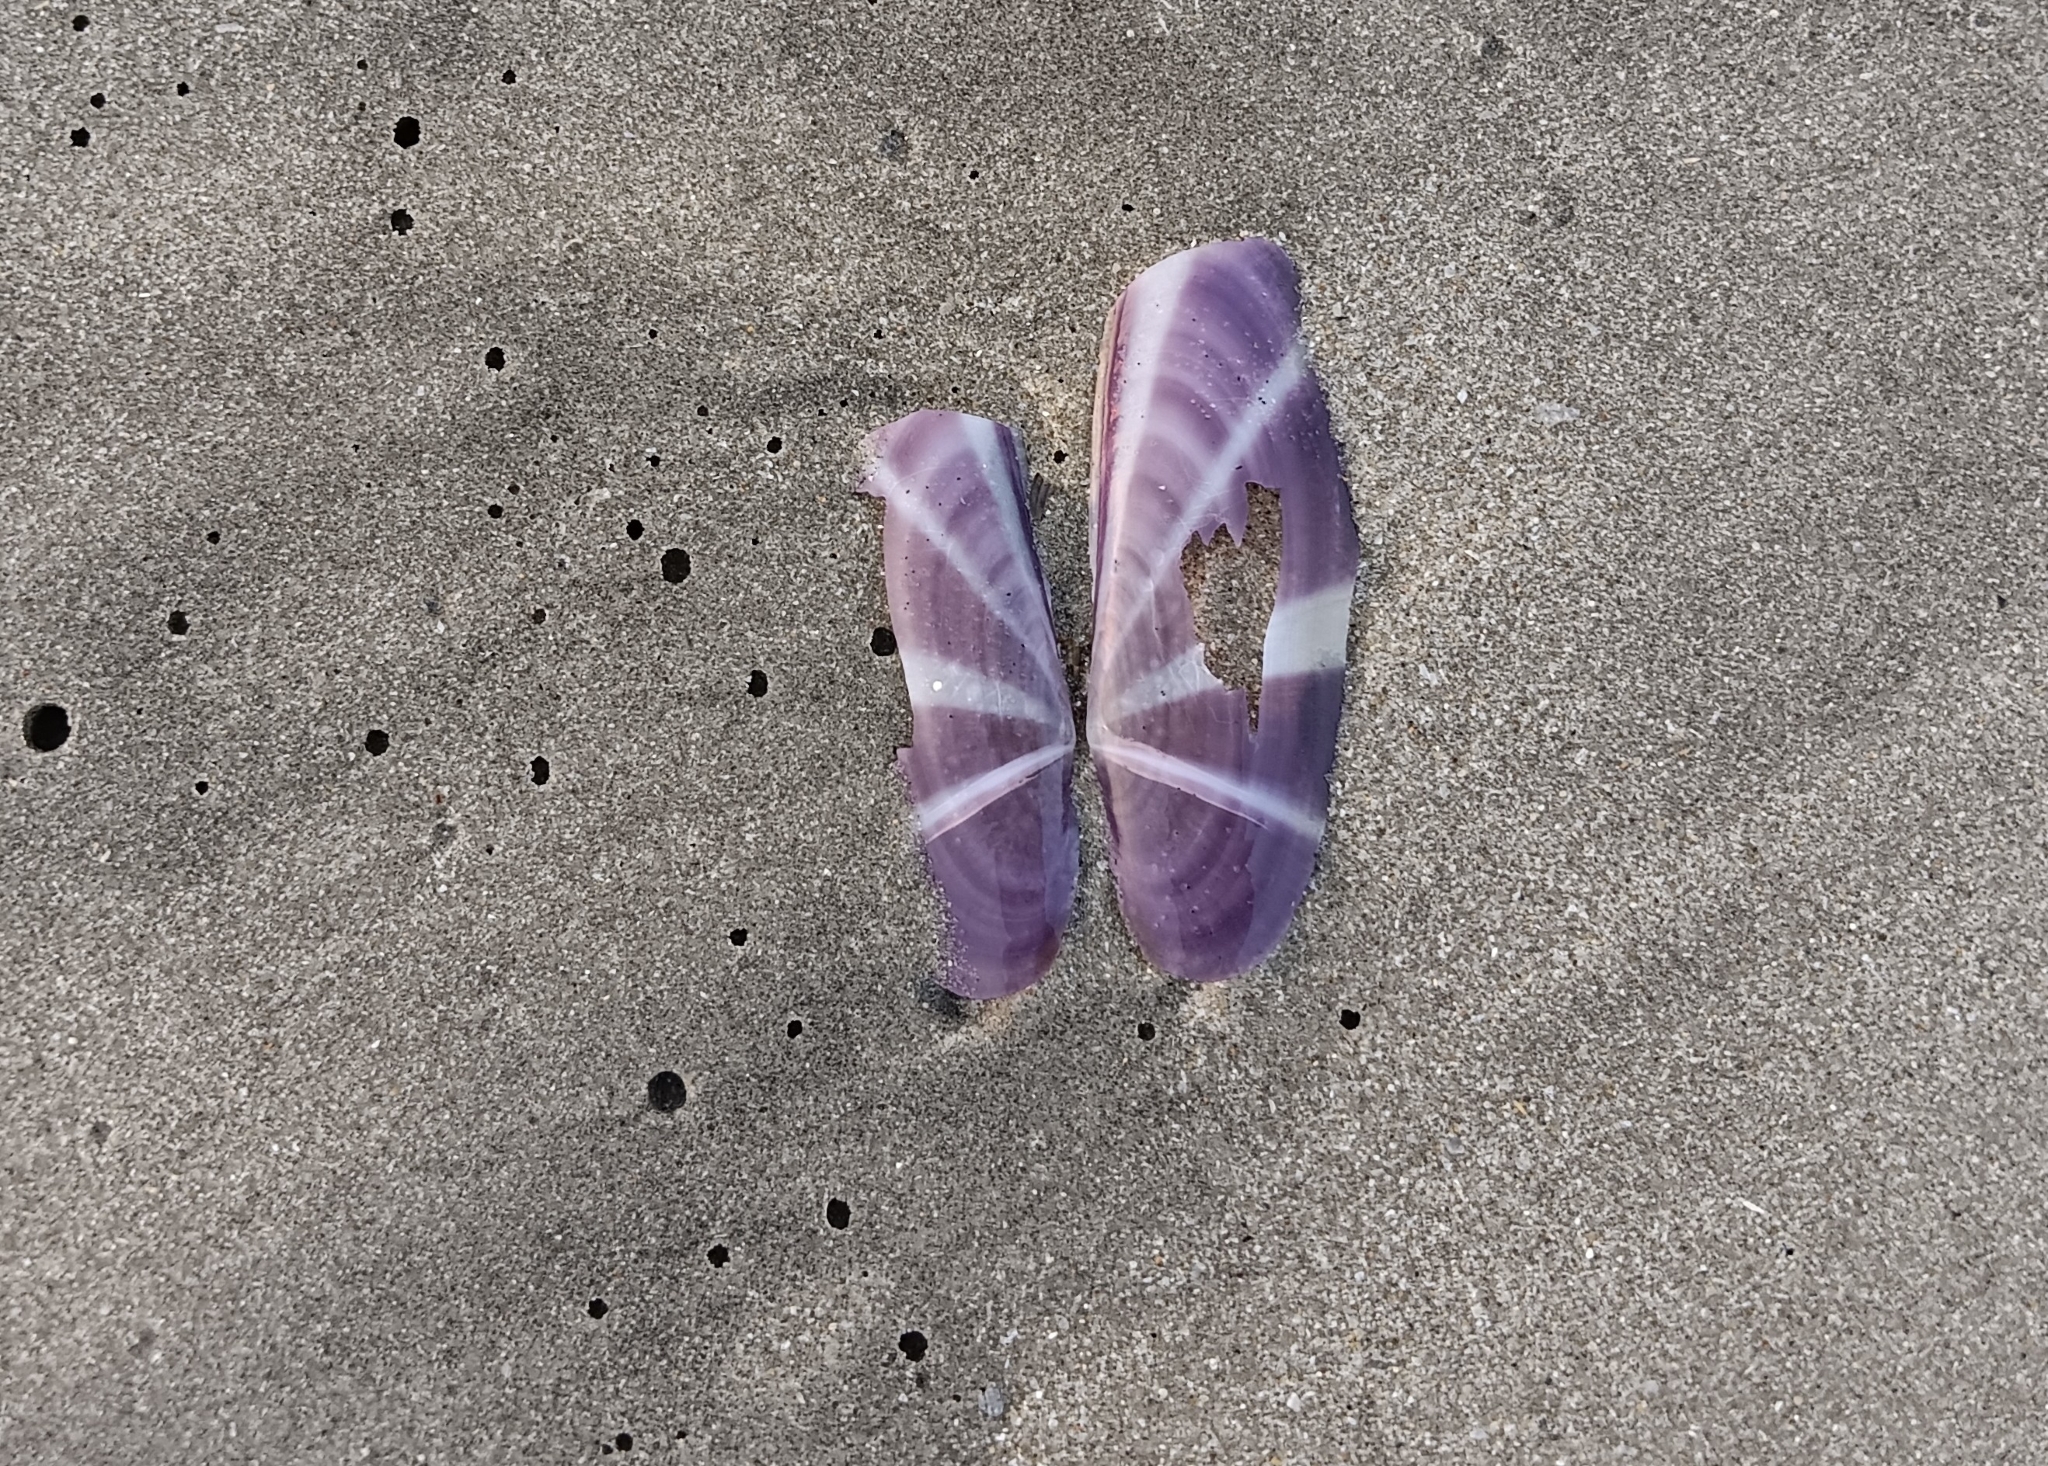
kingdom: Animalia
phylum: Mollusca
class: Bivalvia
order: Adapedonta
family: Pharidae
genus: Siliqua
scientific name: Siliqua radiata
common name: Sunset razor clam
